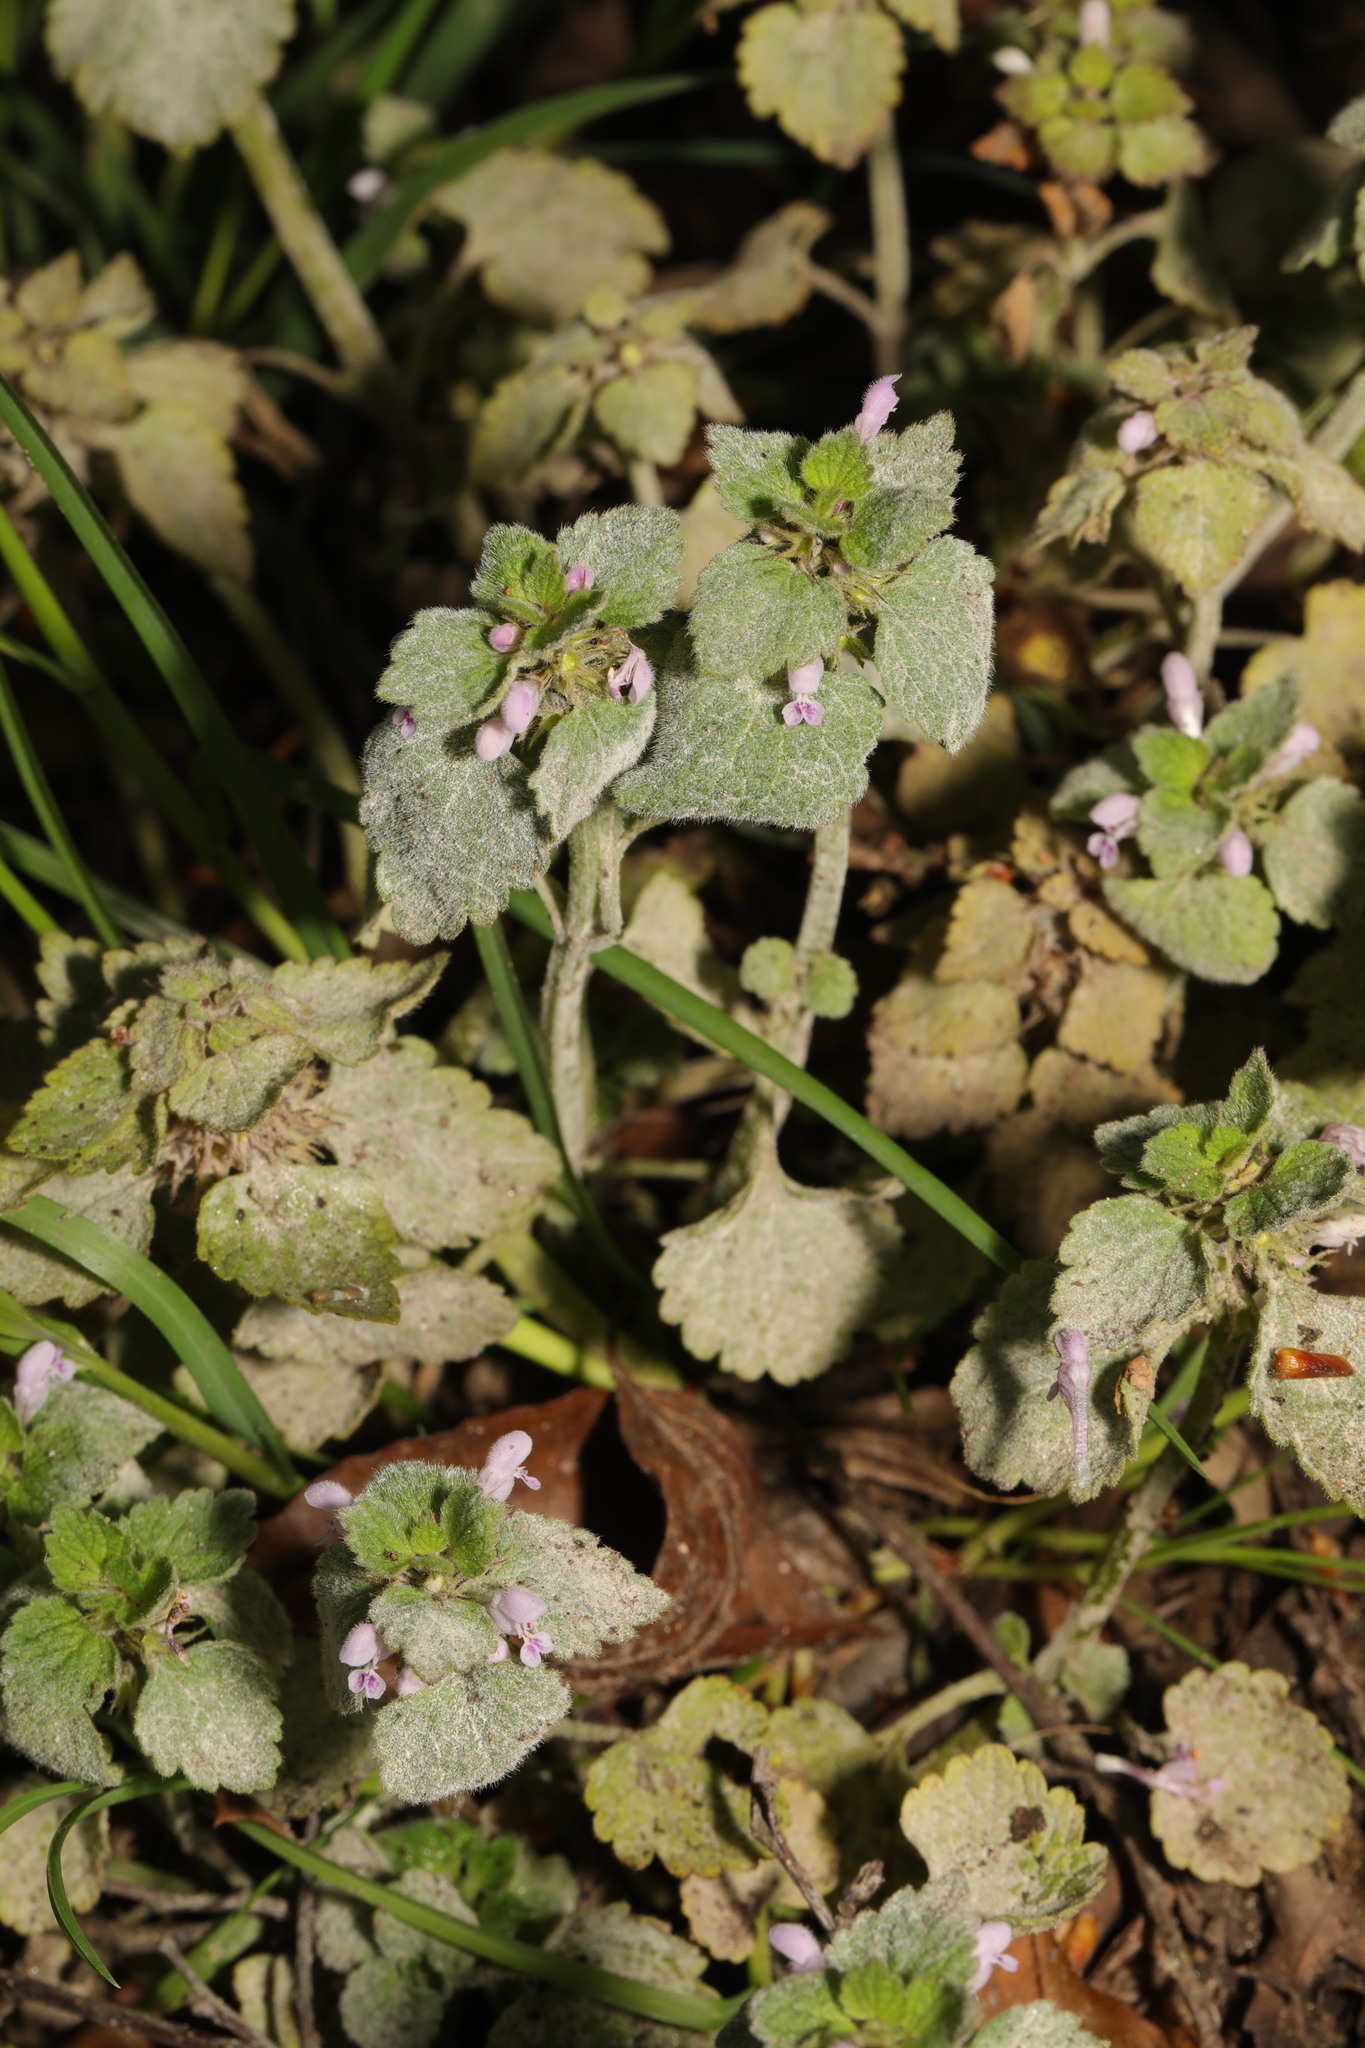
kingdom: Plantae
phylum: Tracheophyta
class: Magnoliopsida
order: Lamiales
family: Lamiaceae
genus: Lamium
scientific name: Lamium purpureum
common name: Red dead-nettle
